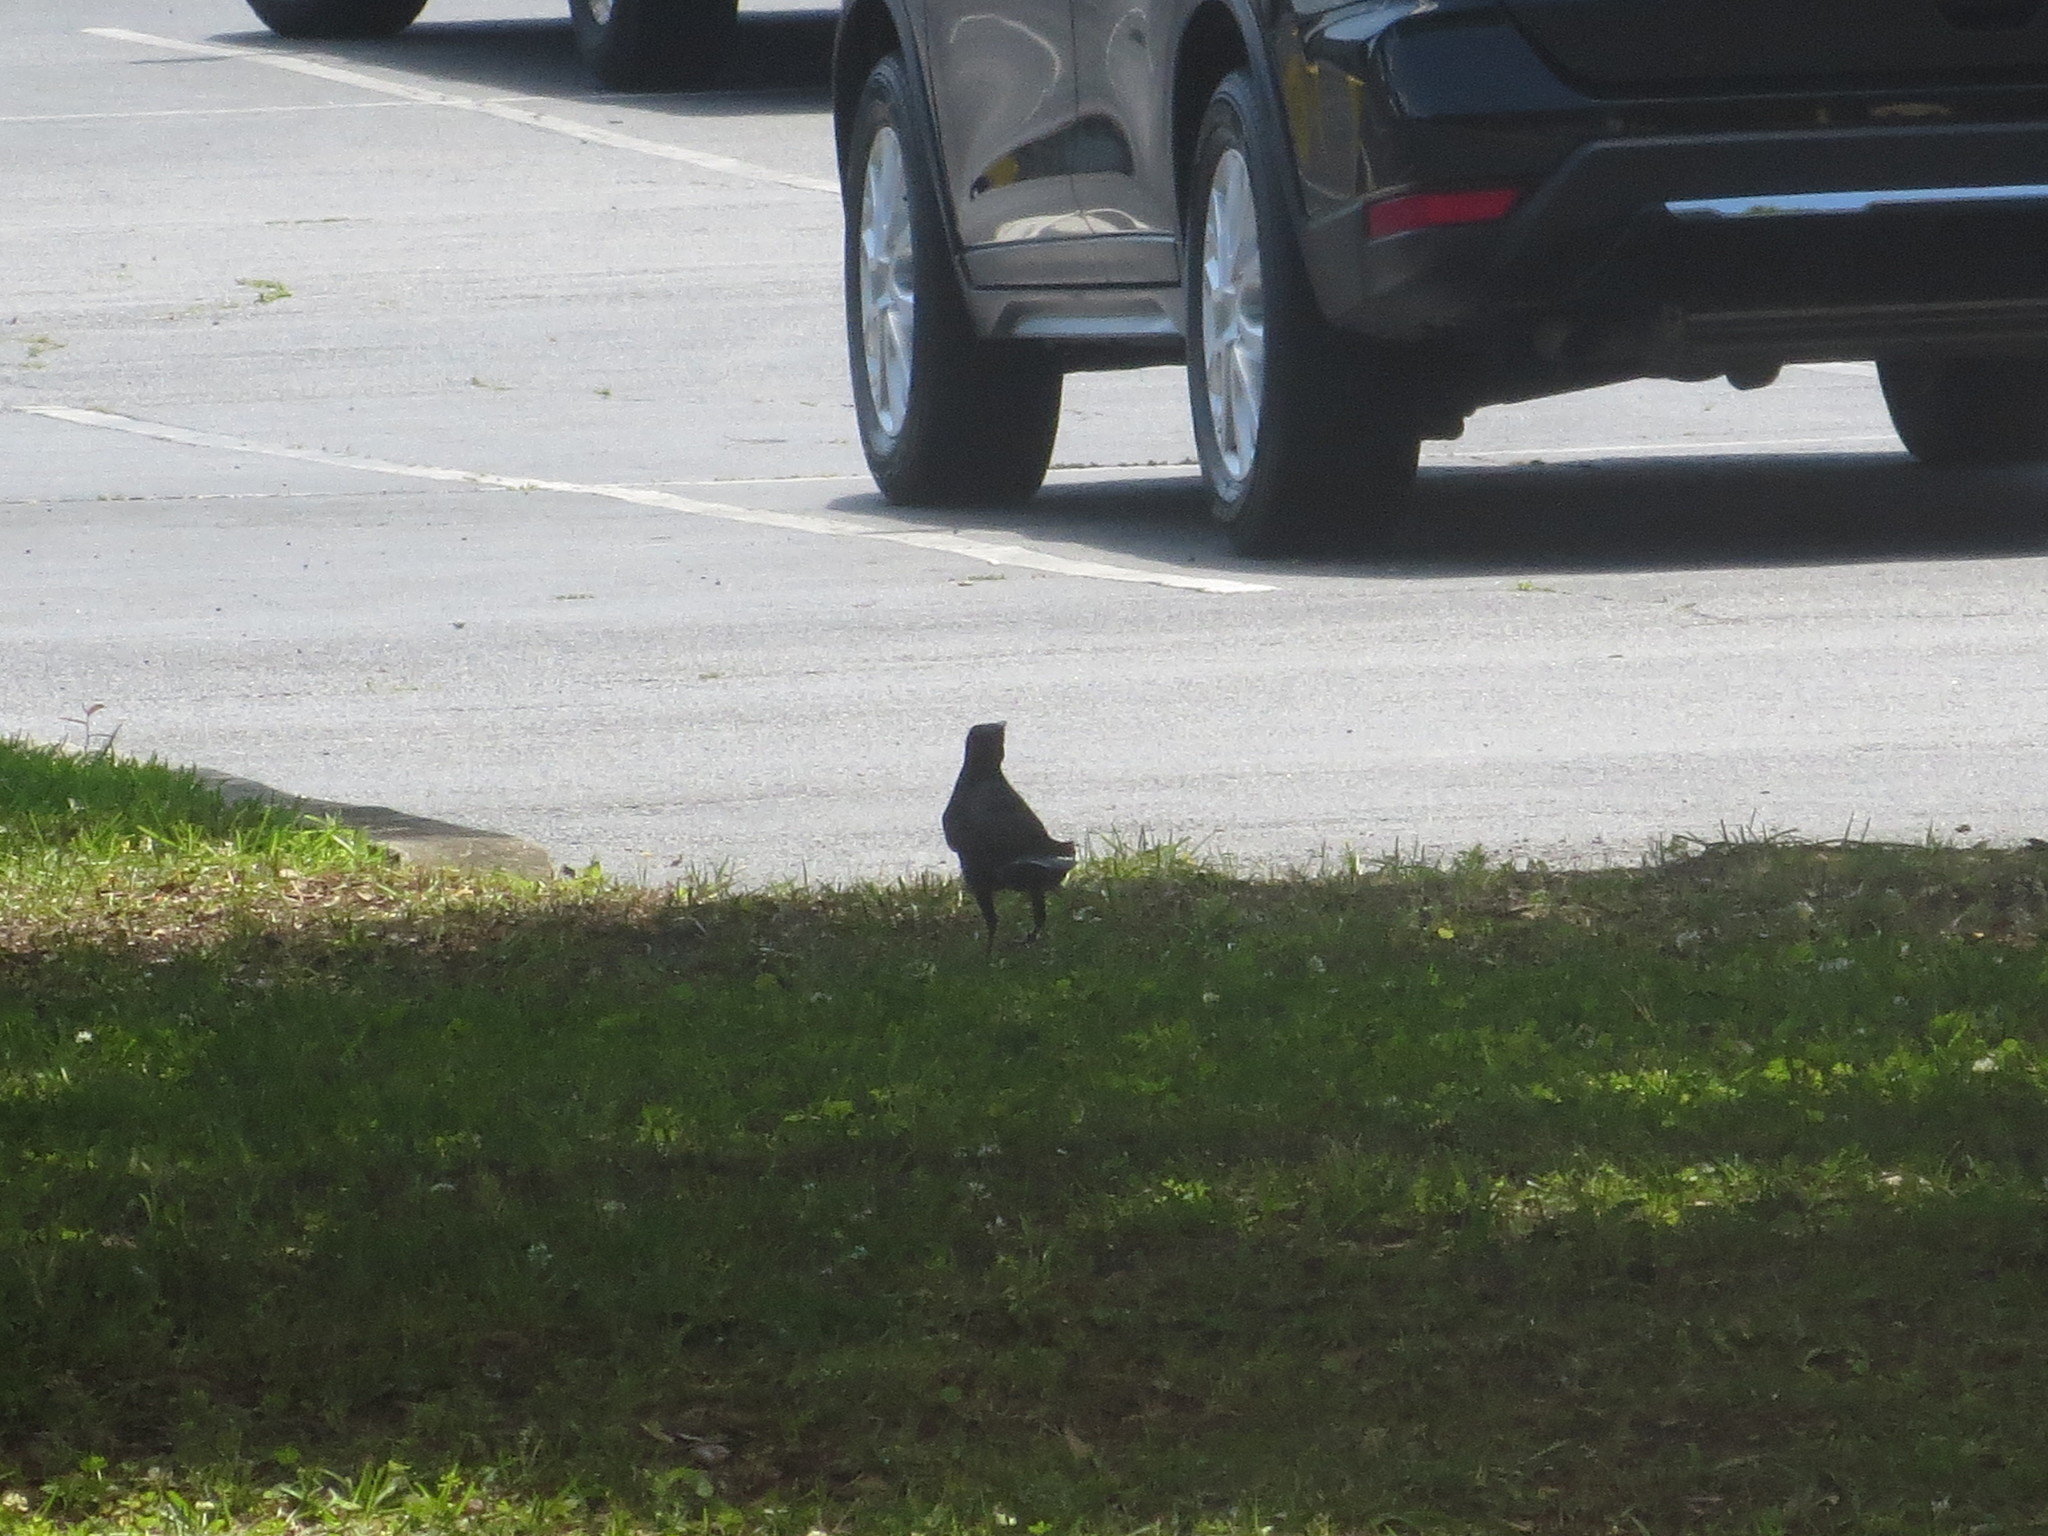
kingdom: Animalia
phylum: Chordata
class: Aves
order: Passeriformes
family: Icteridae
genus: Quiscalus
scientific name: Quiscalus major
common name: Boat-tailed grackle
